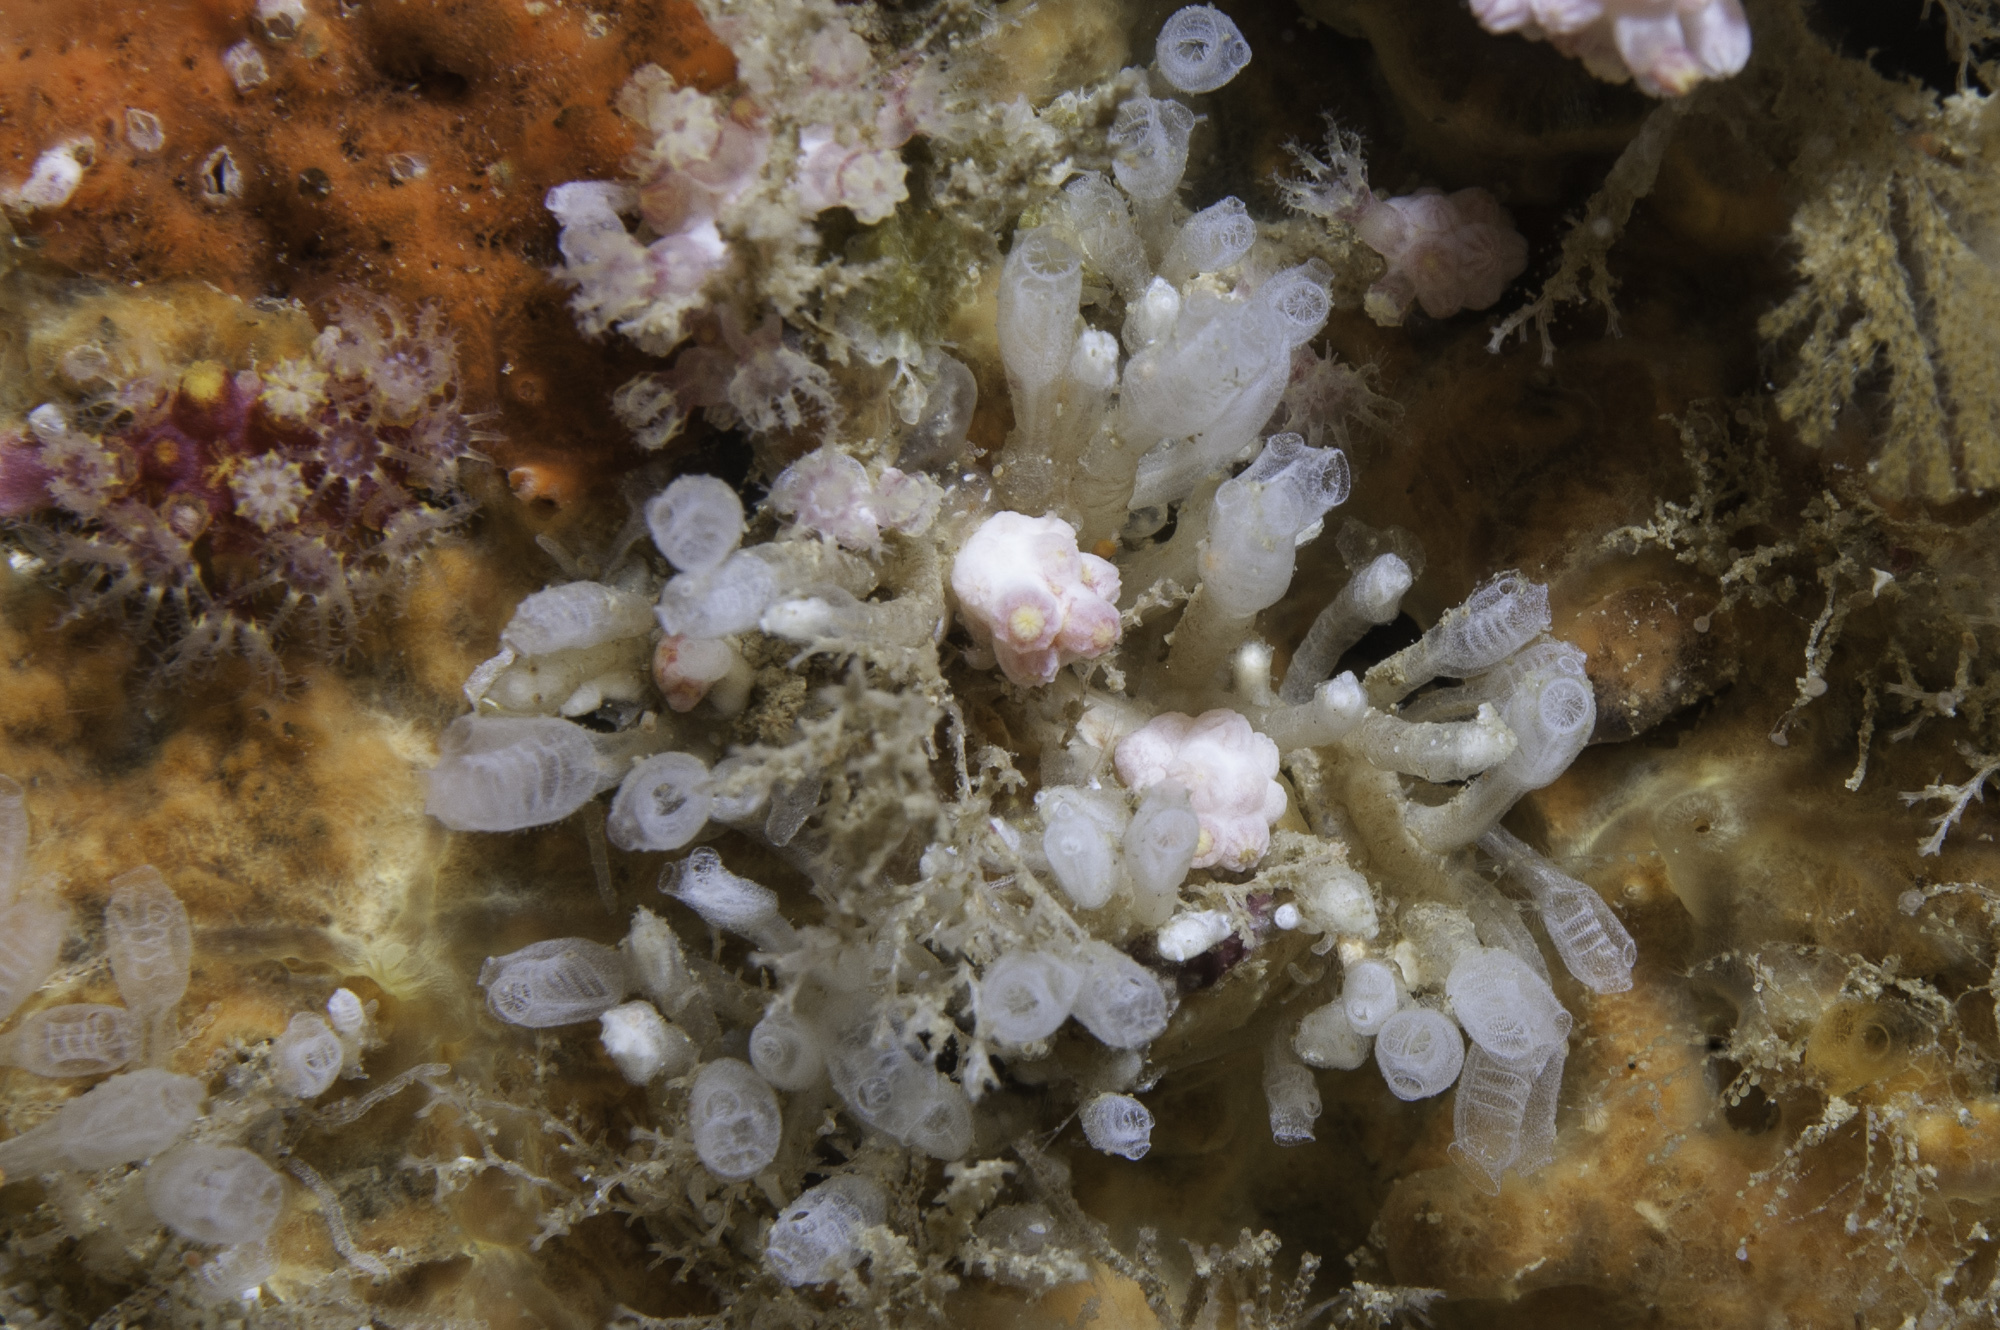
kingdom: Animalia
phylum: Chordata
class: Ascidiacea
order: Aplousobranchia
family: Clavelinidae
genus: Pycnoclavella
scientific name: Pycnoclavella atlantica
